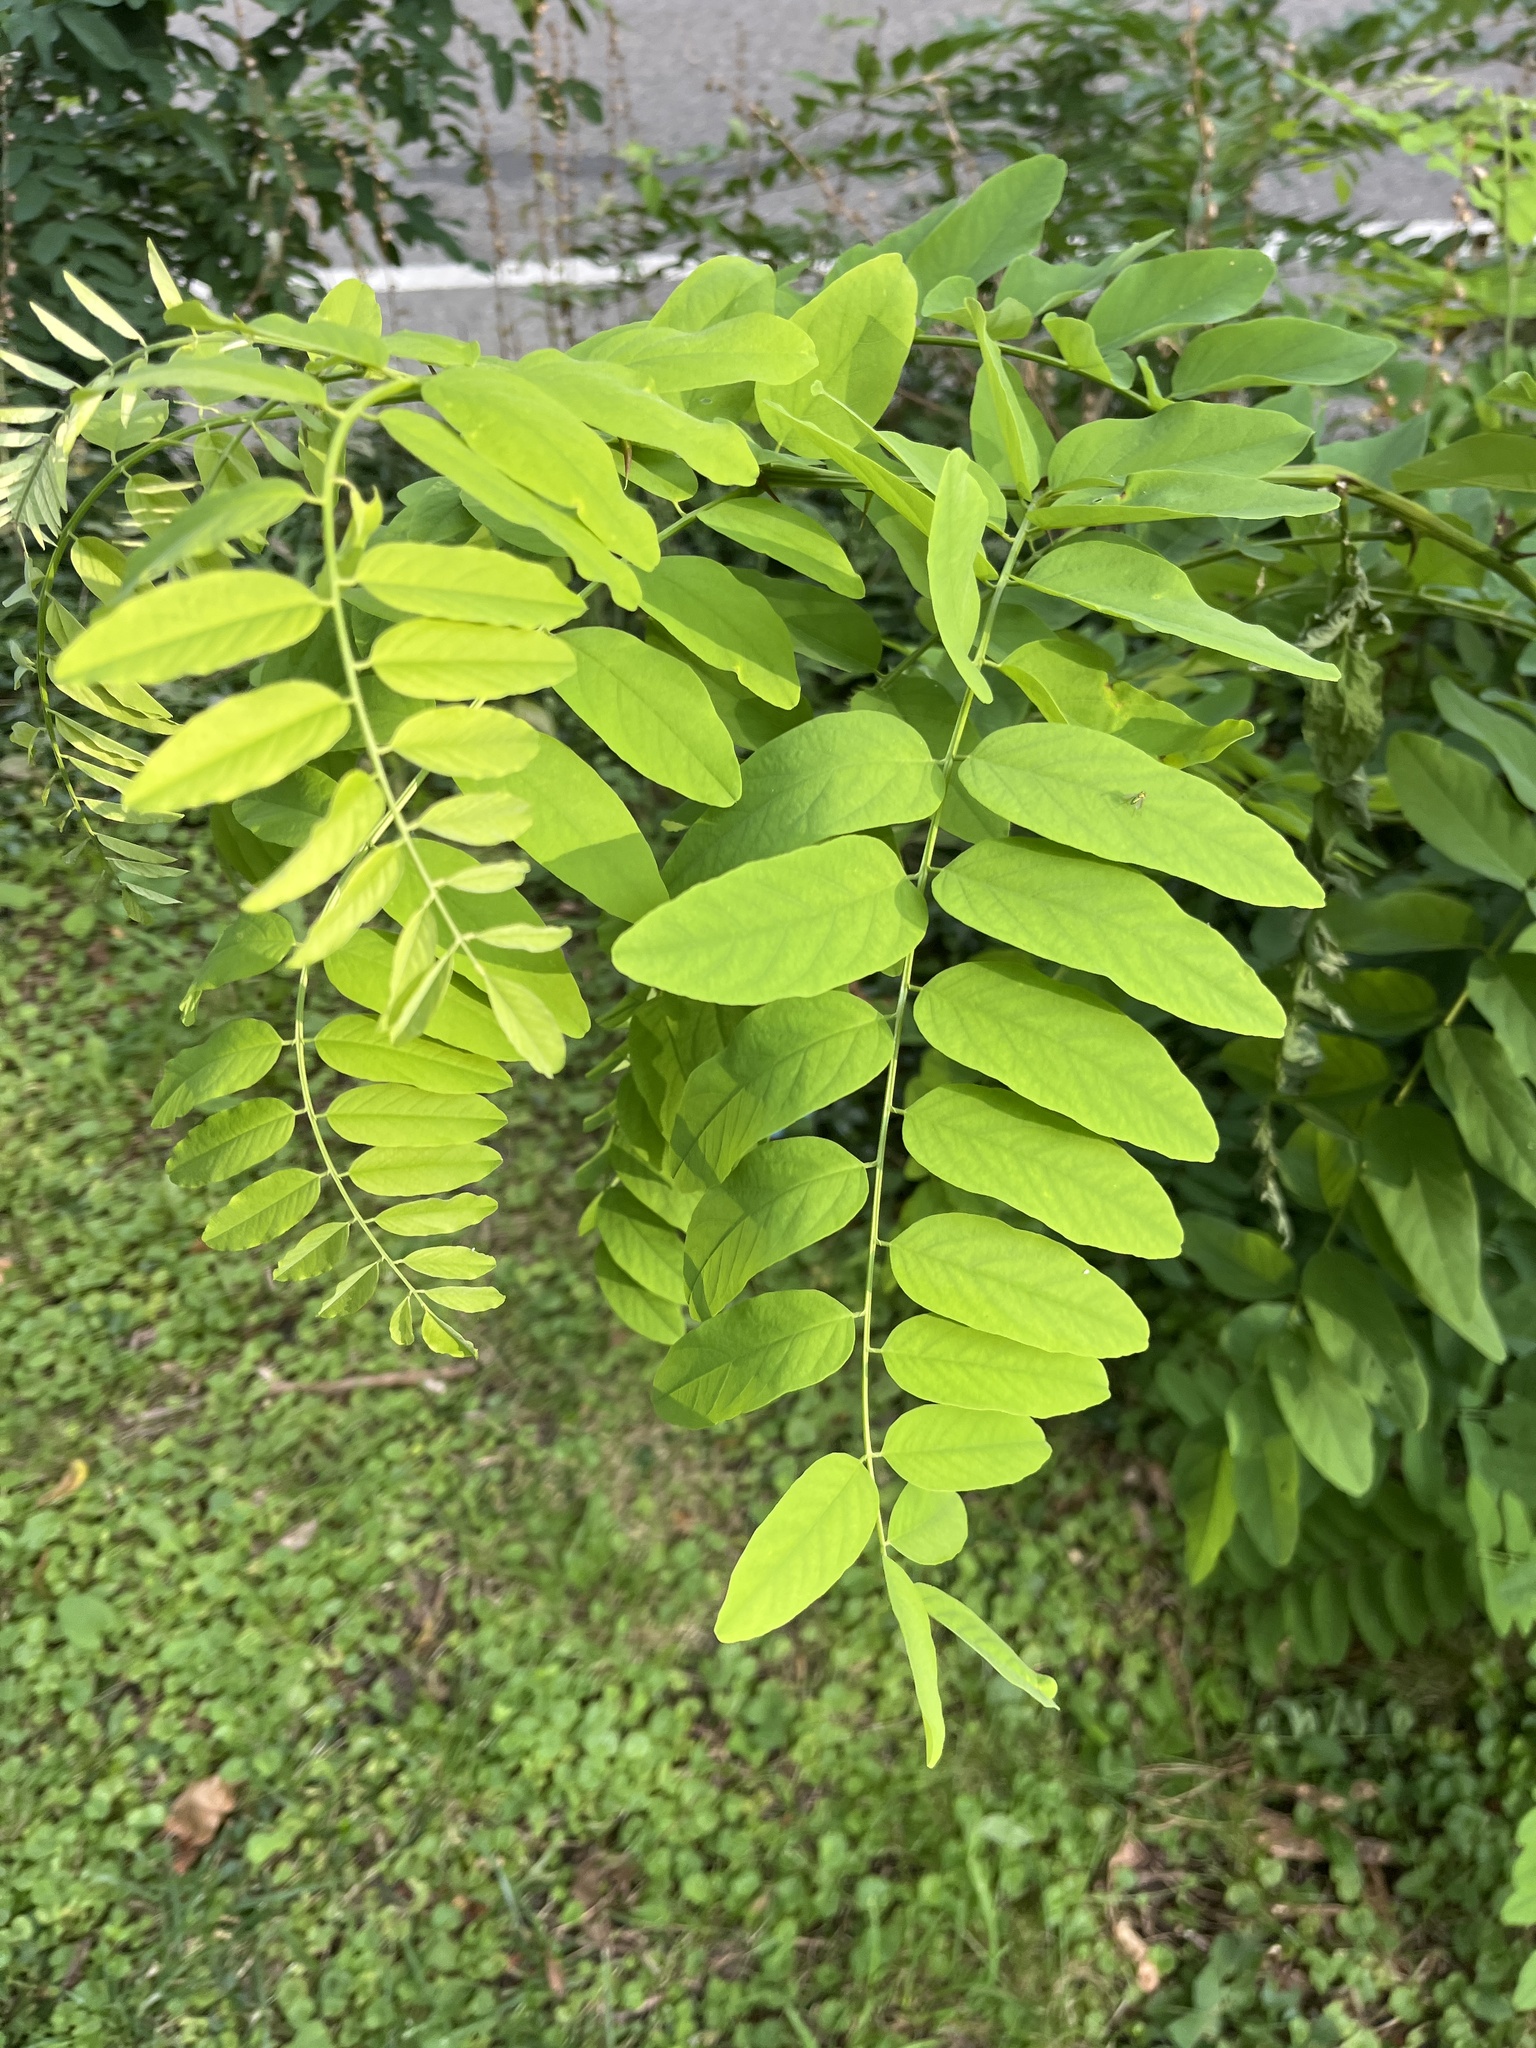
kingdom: Plantae
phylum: Tracheophyta
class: Magnoliopsida
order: Fabales
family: Fabaceae
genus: Robinia
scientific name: Robinia pseudoacacia
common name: Black locust
